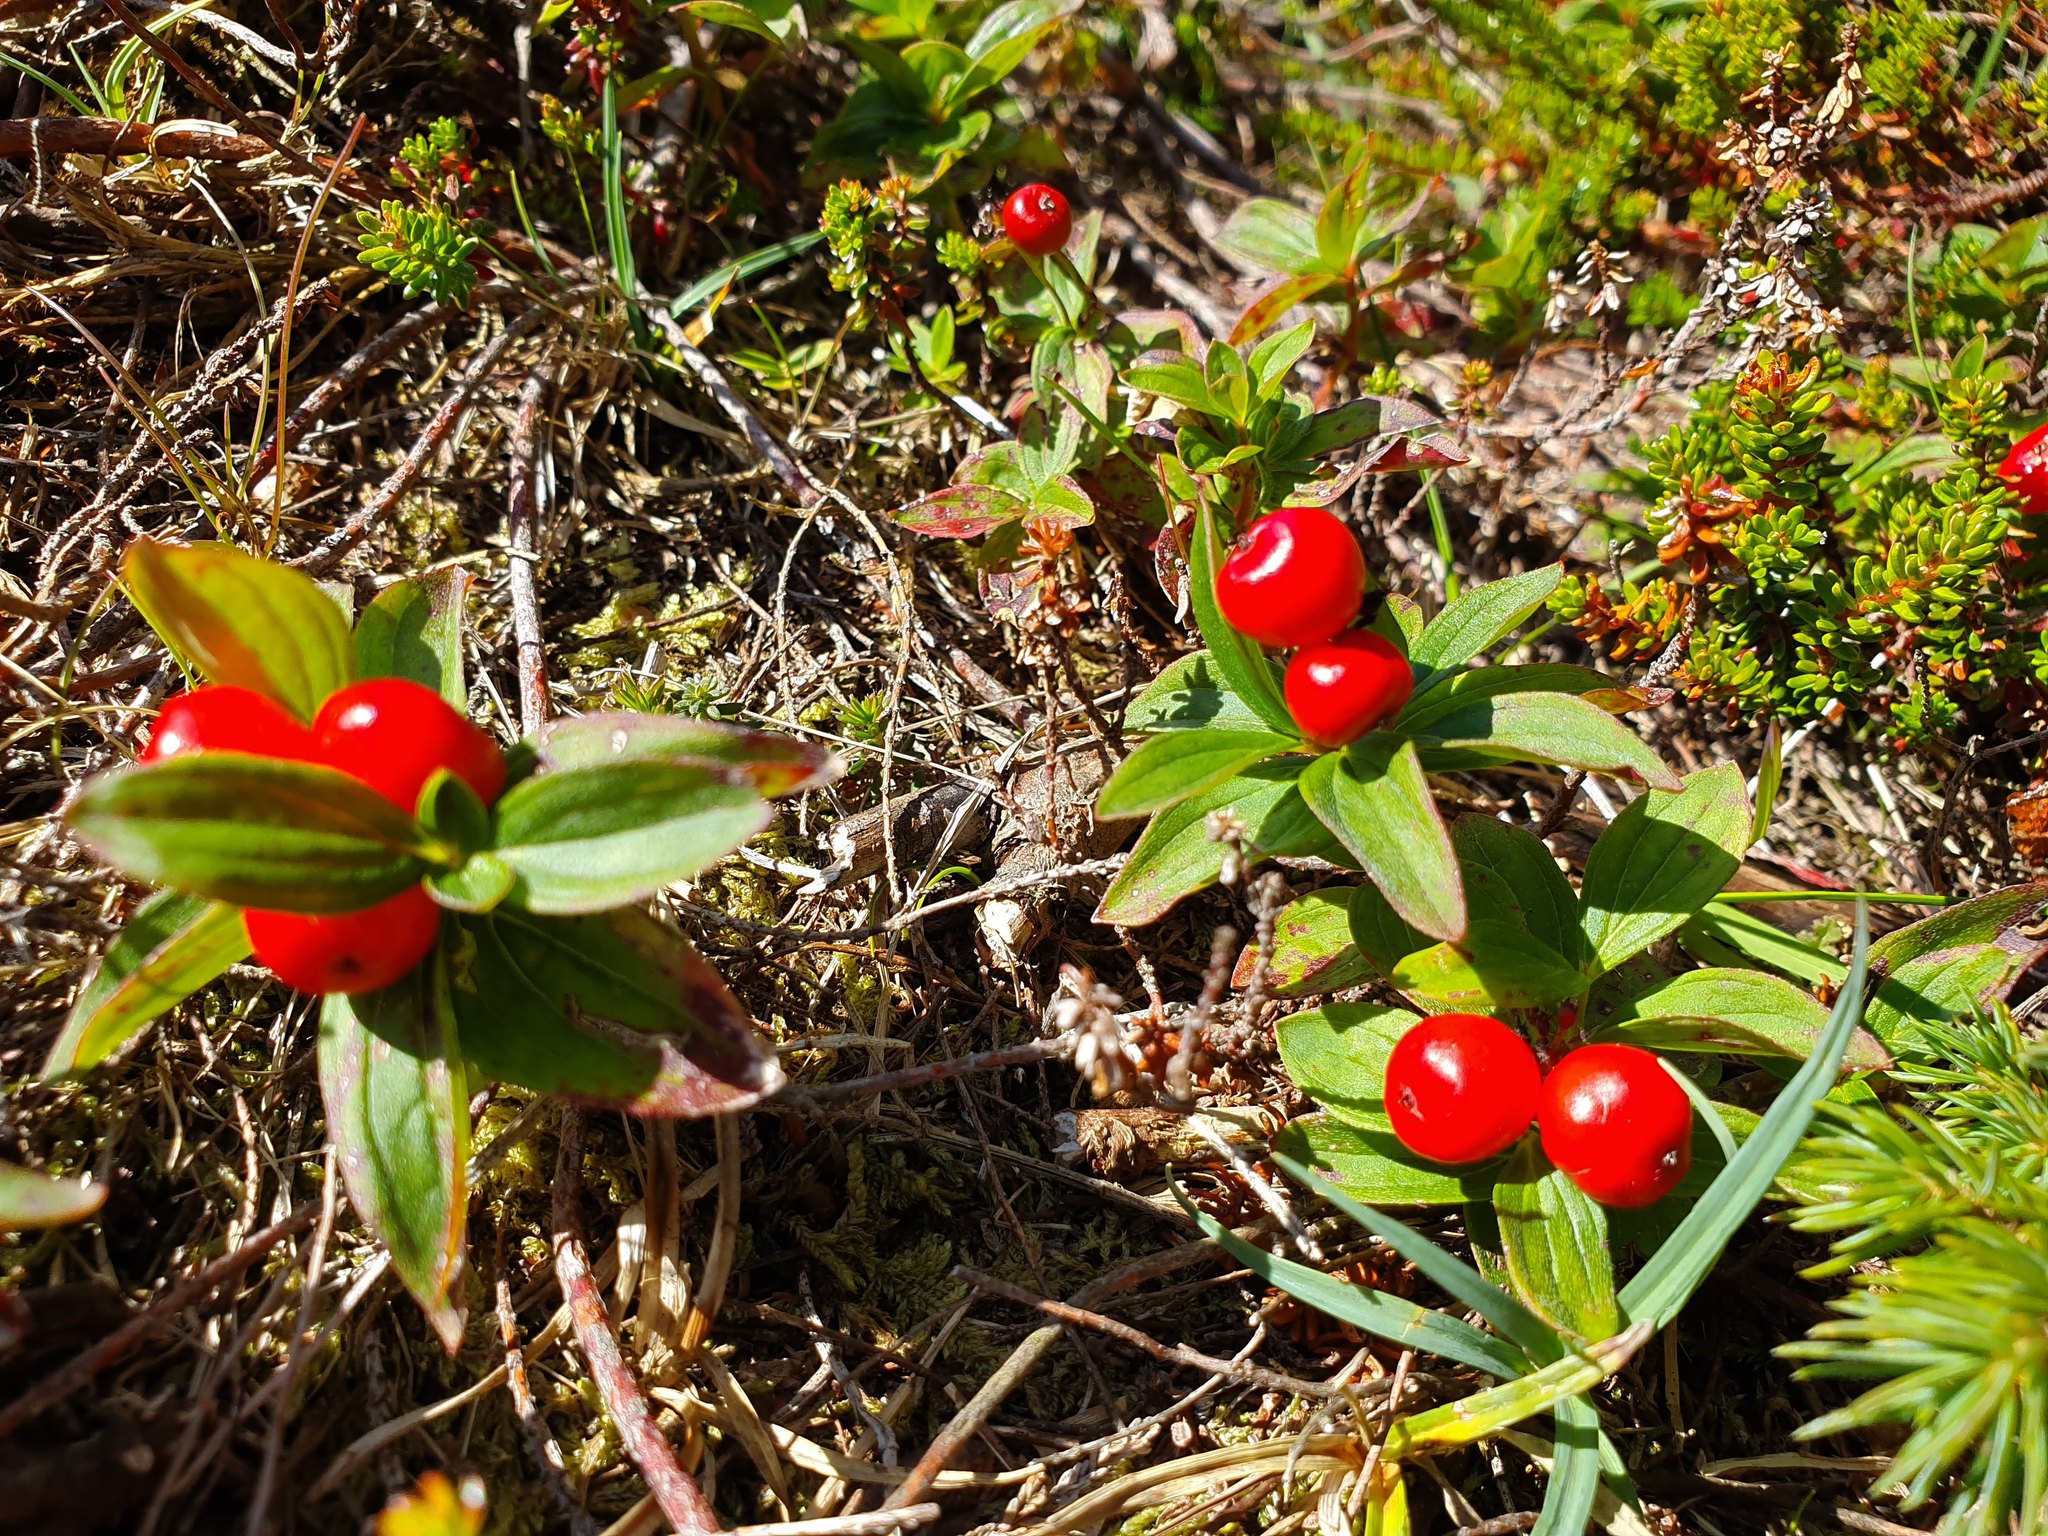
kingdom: Plantae
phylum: Tracheophyta
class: Magnoliopsida
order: Cornales
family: Cornaceae
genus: Cornus
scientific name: Cornus suecica
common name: Dwarf cornel
